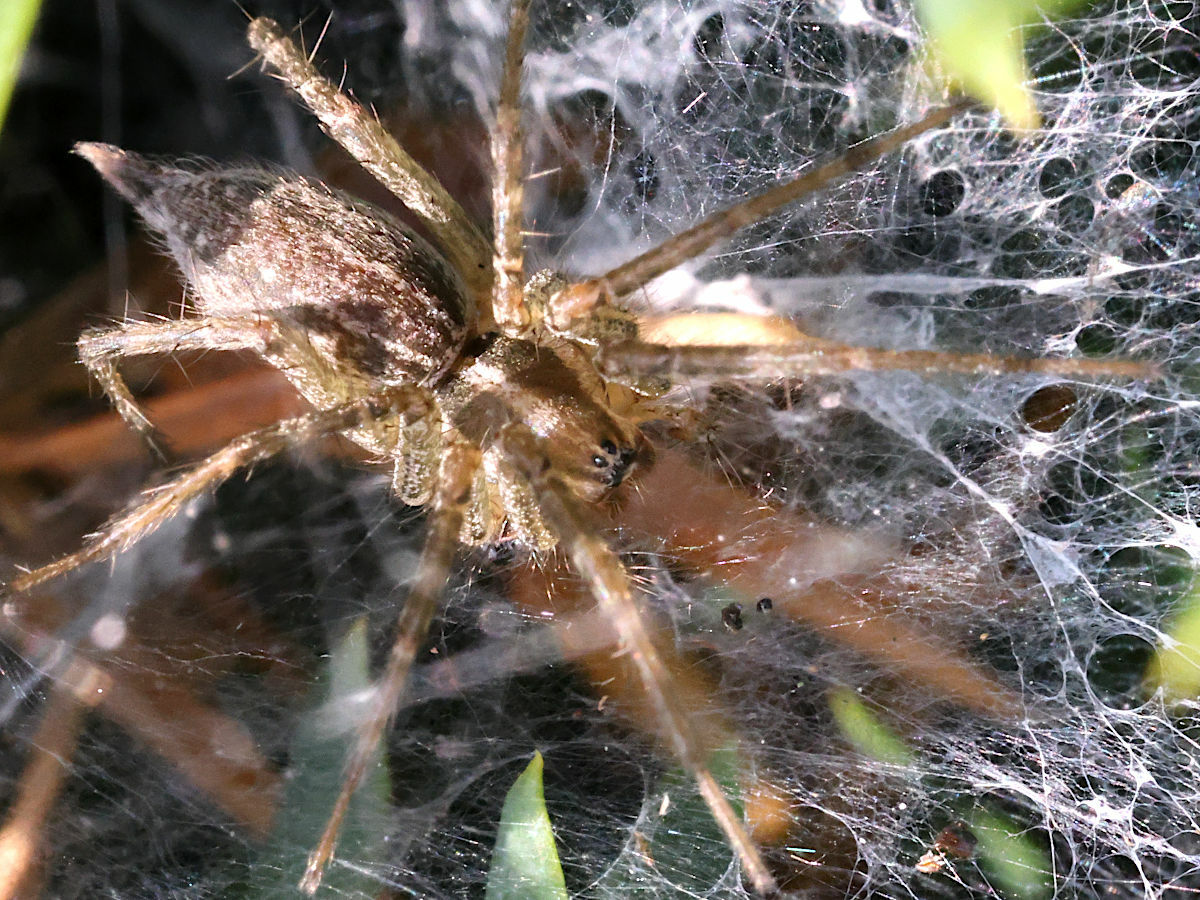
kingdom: Animalia
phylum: Arthropoda
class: Arachnida
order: Araneae
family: Agelenidae
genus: Agelenopsis
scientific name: Agelenopsis
